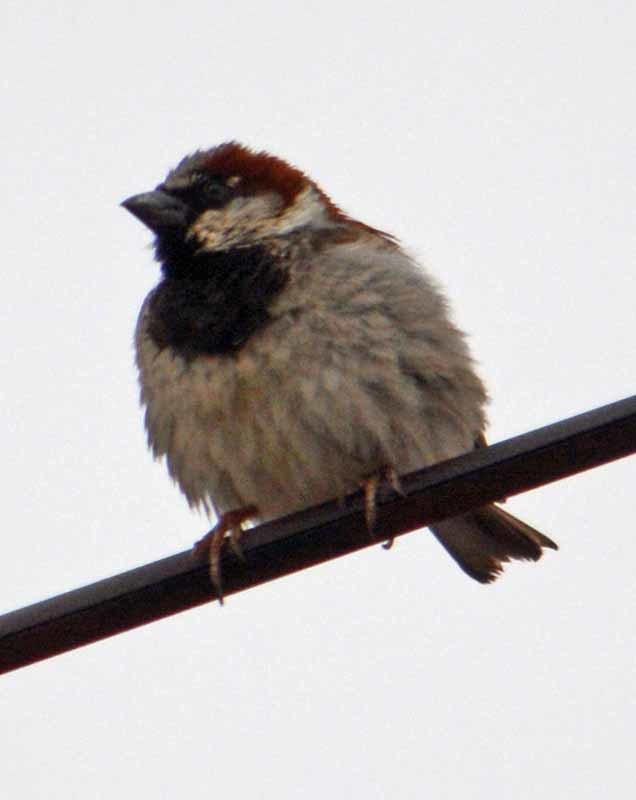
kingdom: Animalia
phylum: Chordata
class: Aves
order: Passeriformes
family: Passeridae
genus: Passer
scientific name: Passer domesticus
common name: House sparrow
